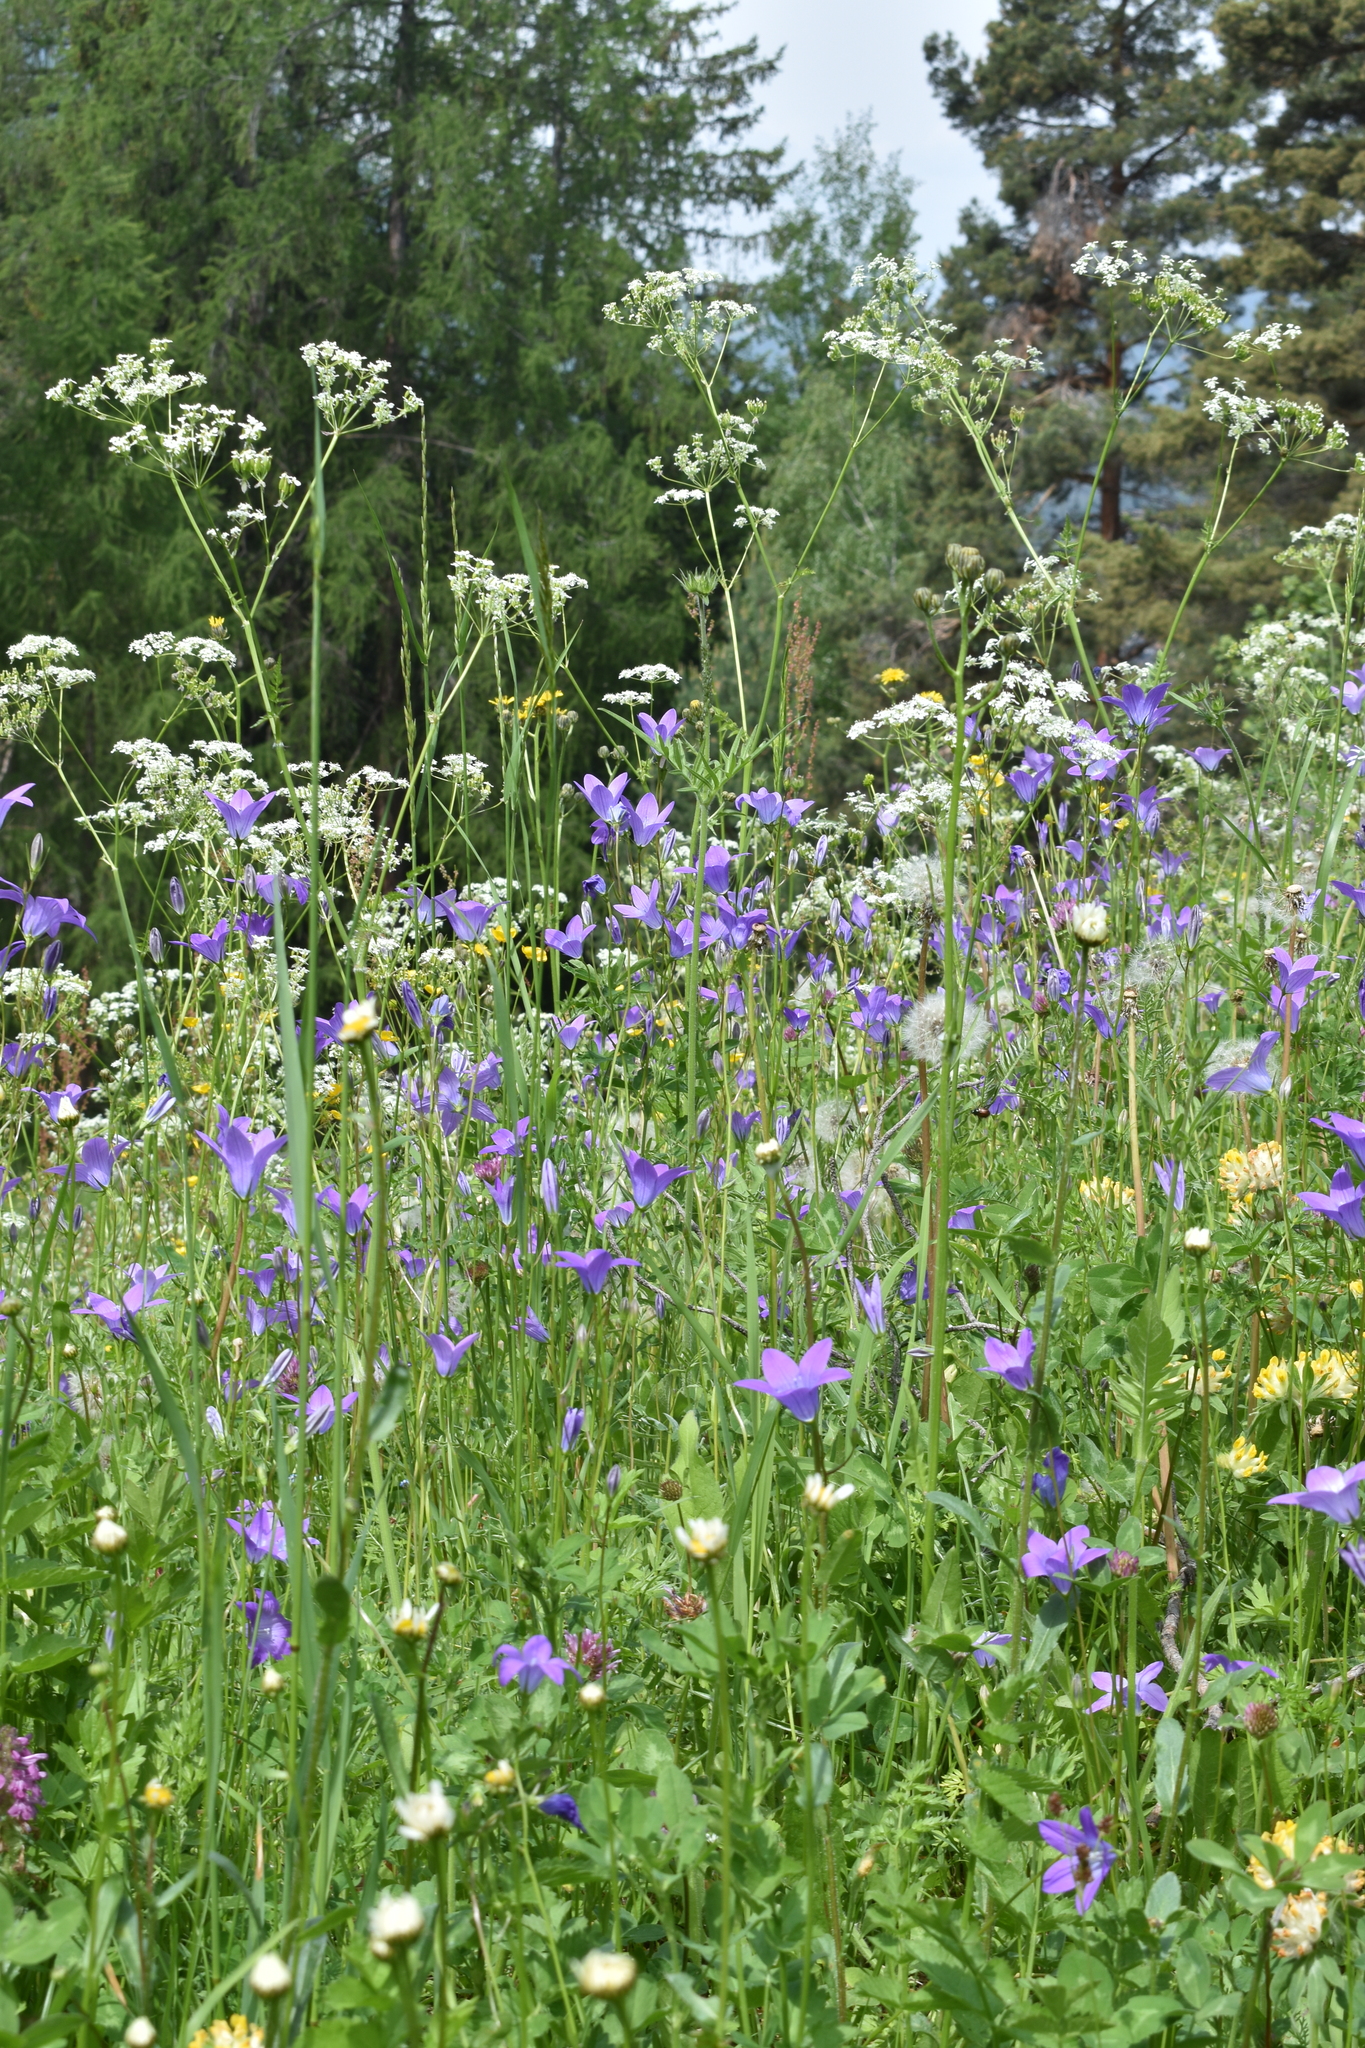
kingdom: Plantae
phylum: Tracheophyta
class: Magnoliopsida
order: Asterales
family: Campanulaceae
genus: Campanula
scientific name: Campanula patula
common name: Spreading bellflower
